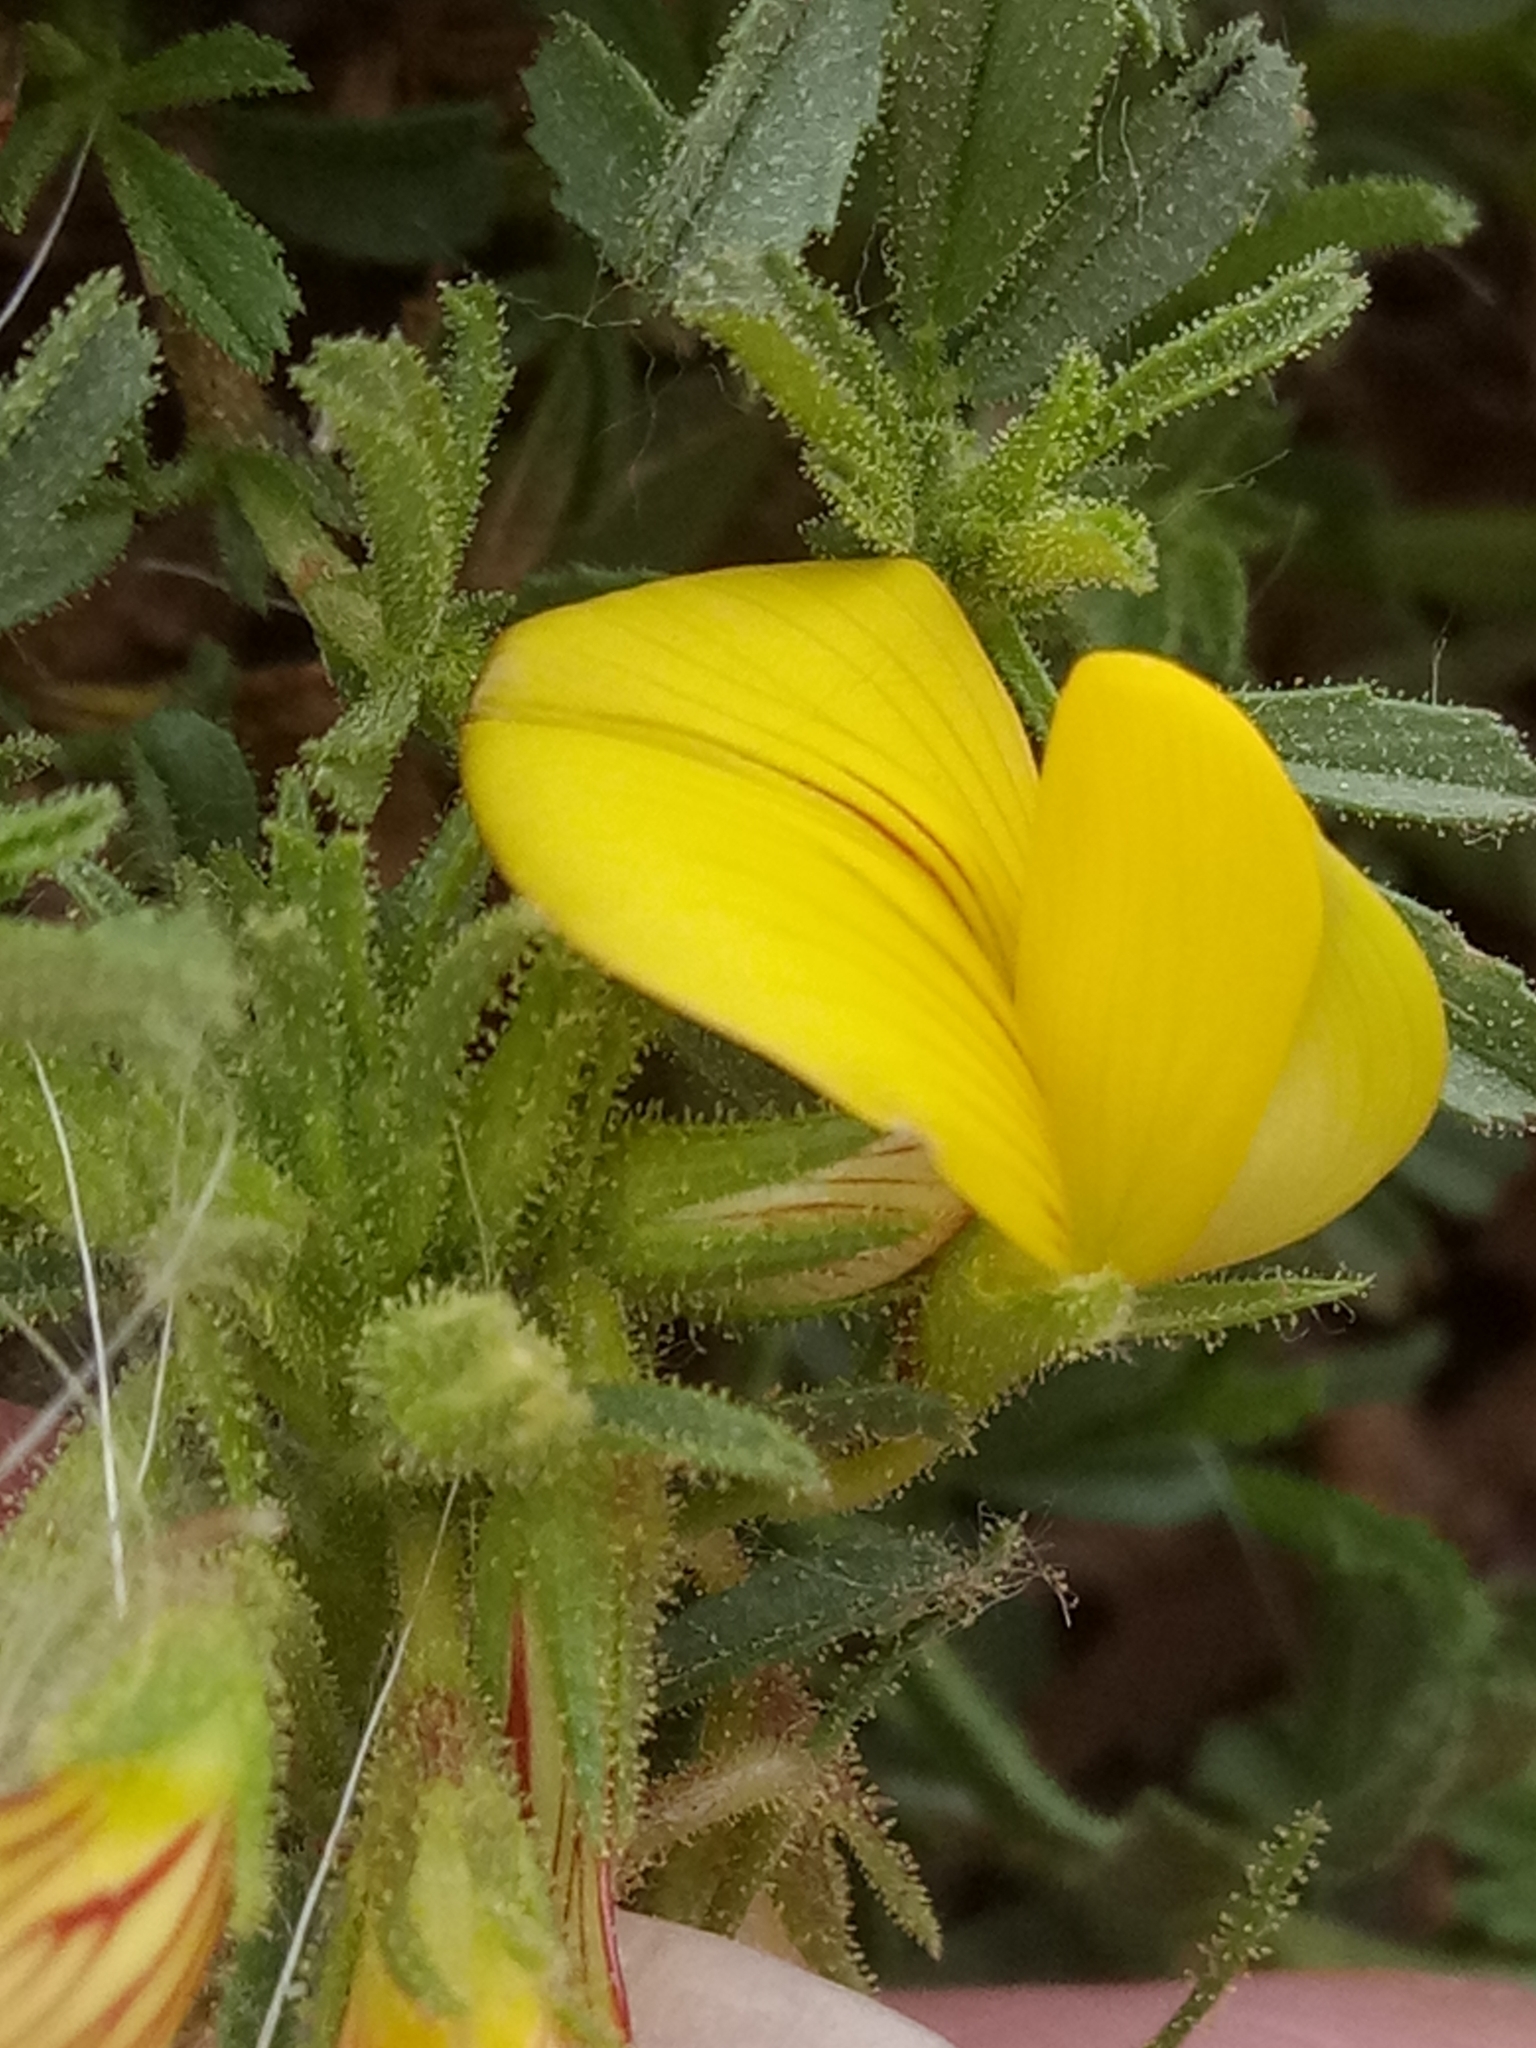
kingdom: Plantae
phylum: Tracheophyta
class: Magnoliopsida
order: Fabales
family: Fabaceae
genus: Ononis
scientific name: Ononis natrix
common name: Yellow restharrow
